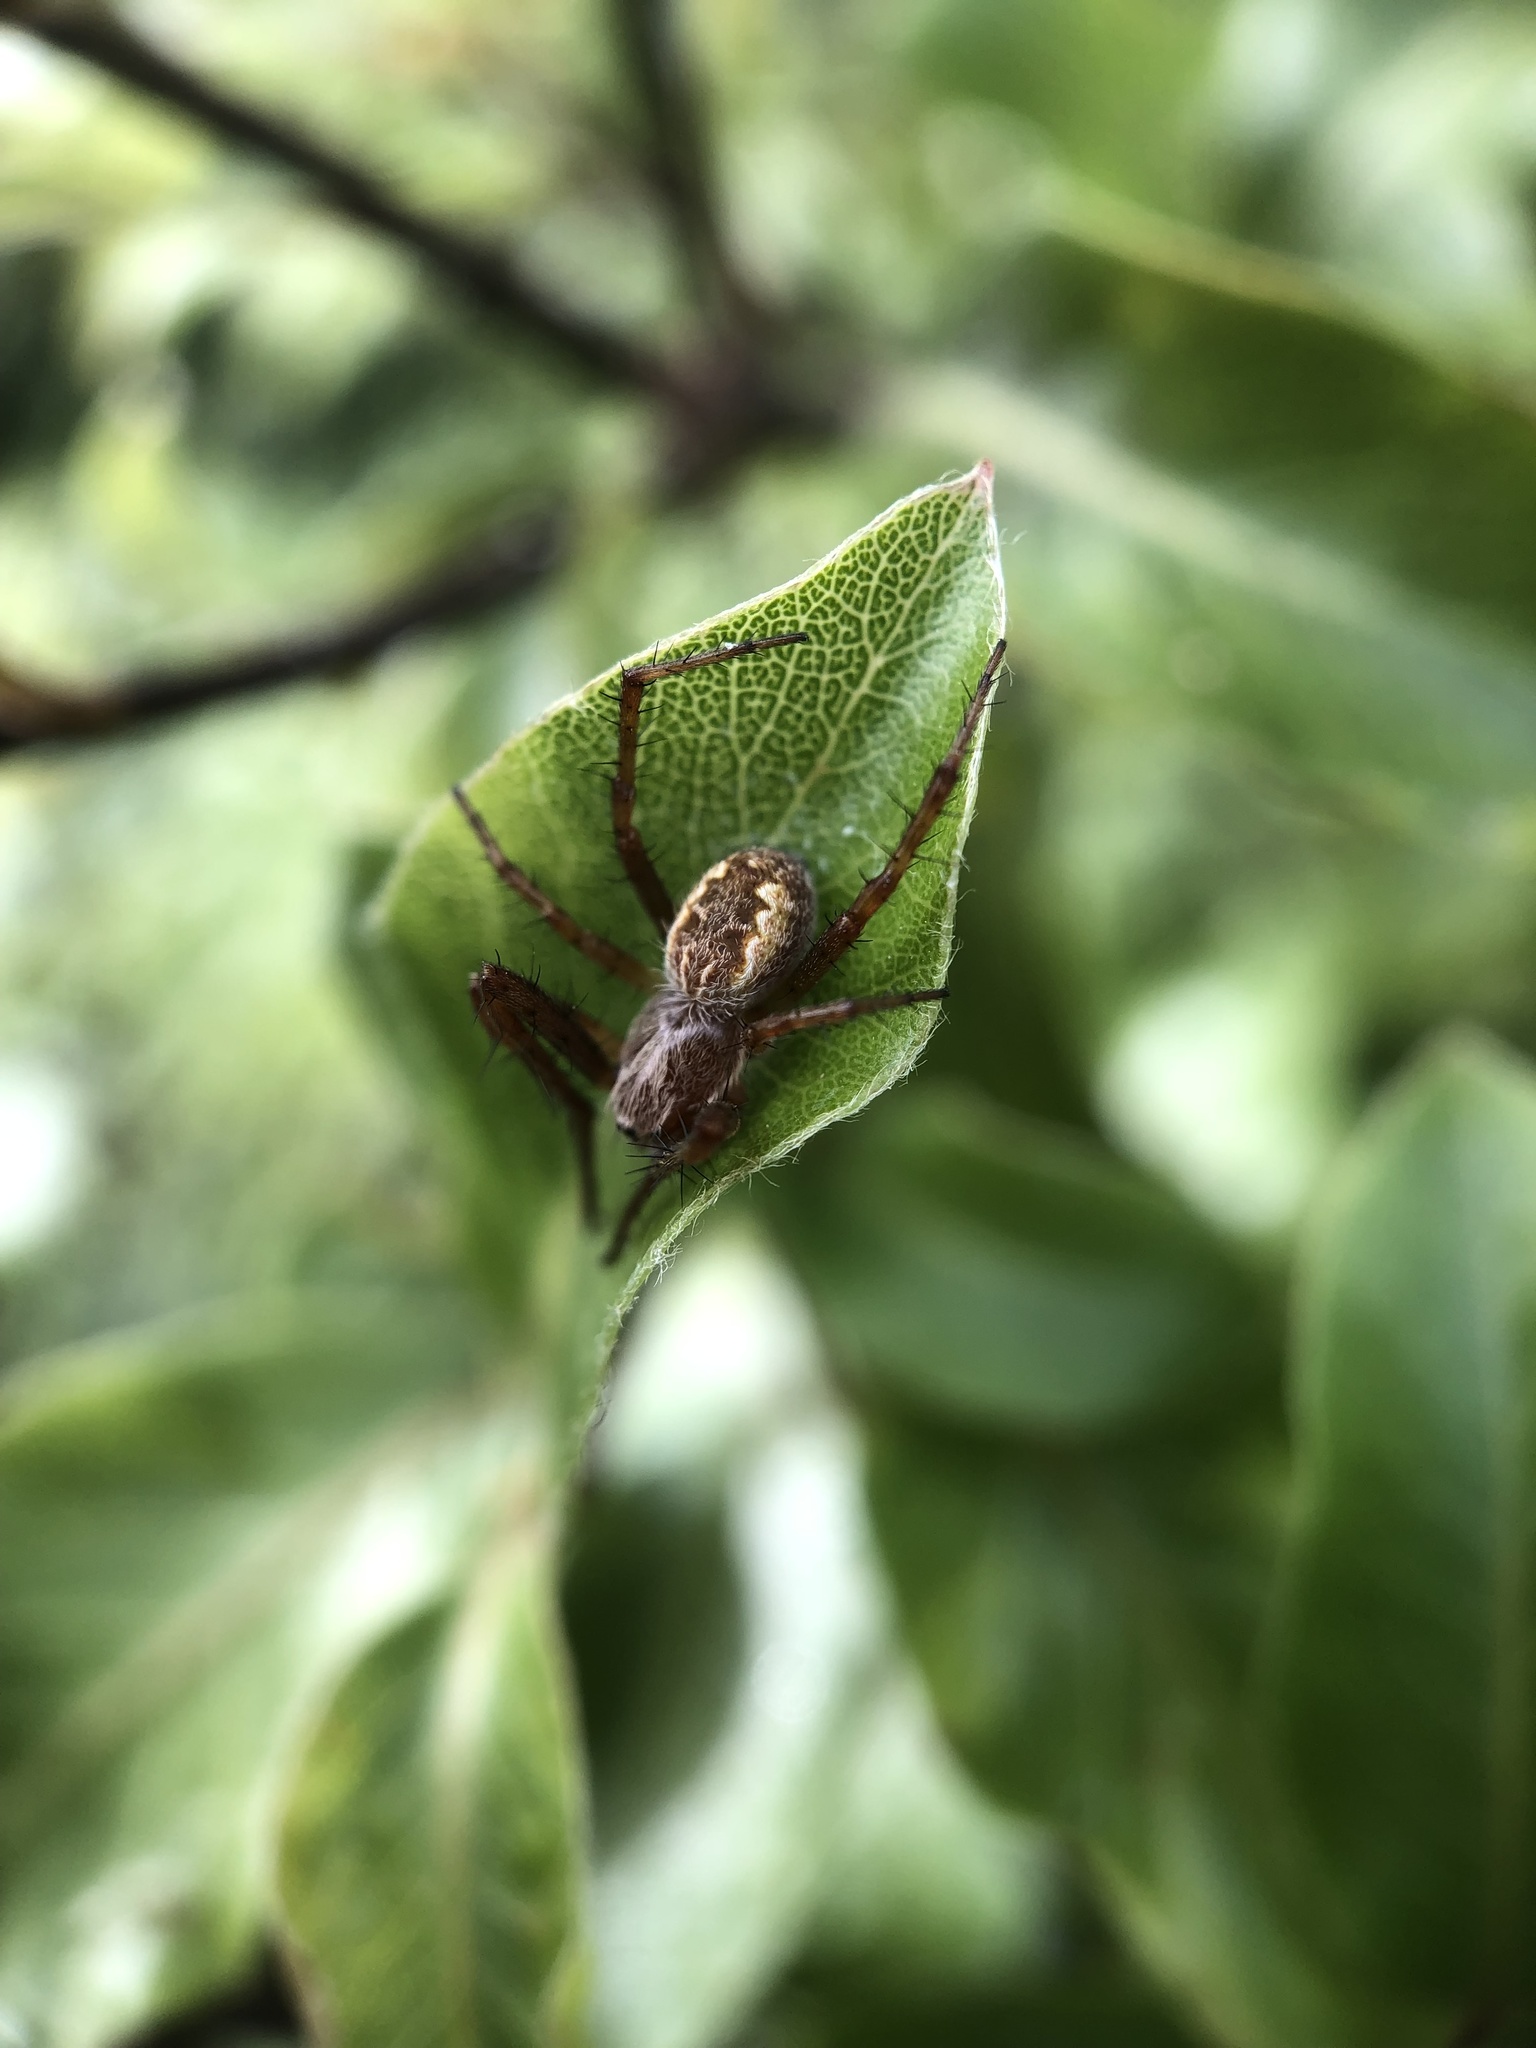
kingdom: Animalia
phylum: Arthropoda
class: Arachnida
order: Araneae
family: Araneidae
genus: Salsa
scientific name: Salsa fuliginata
